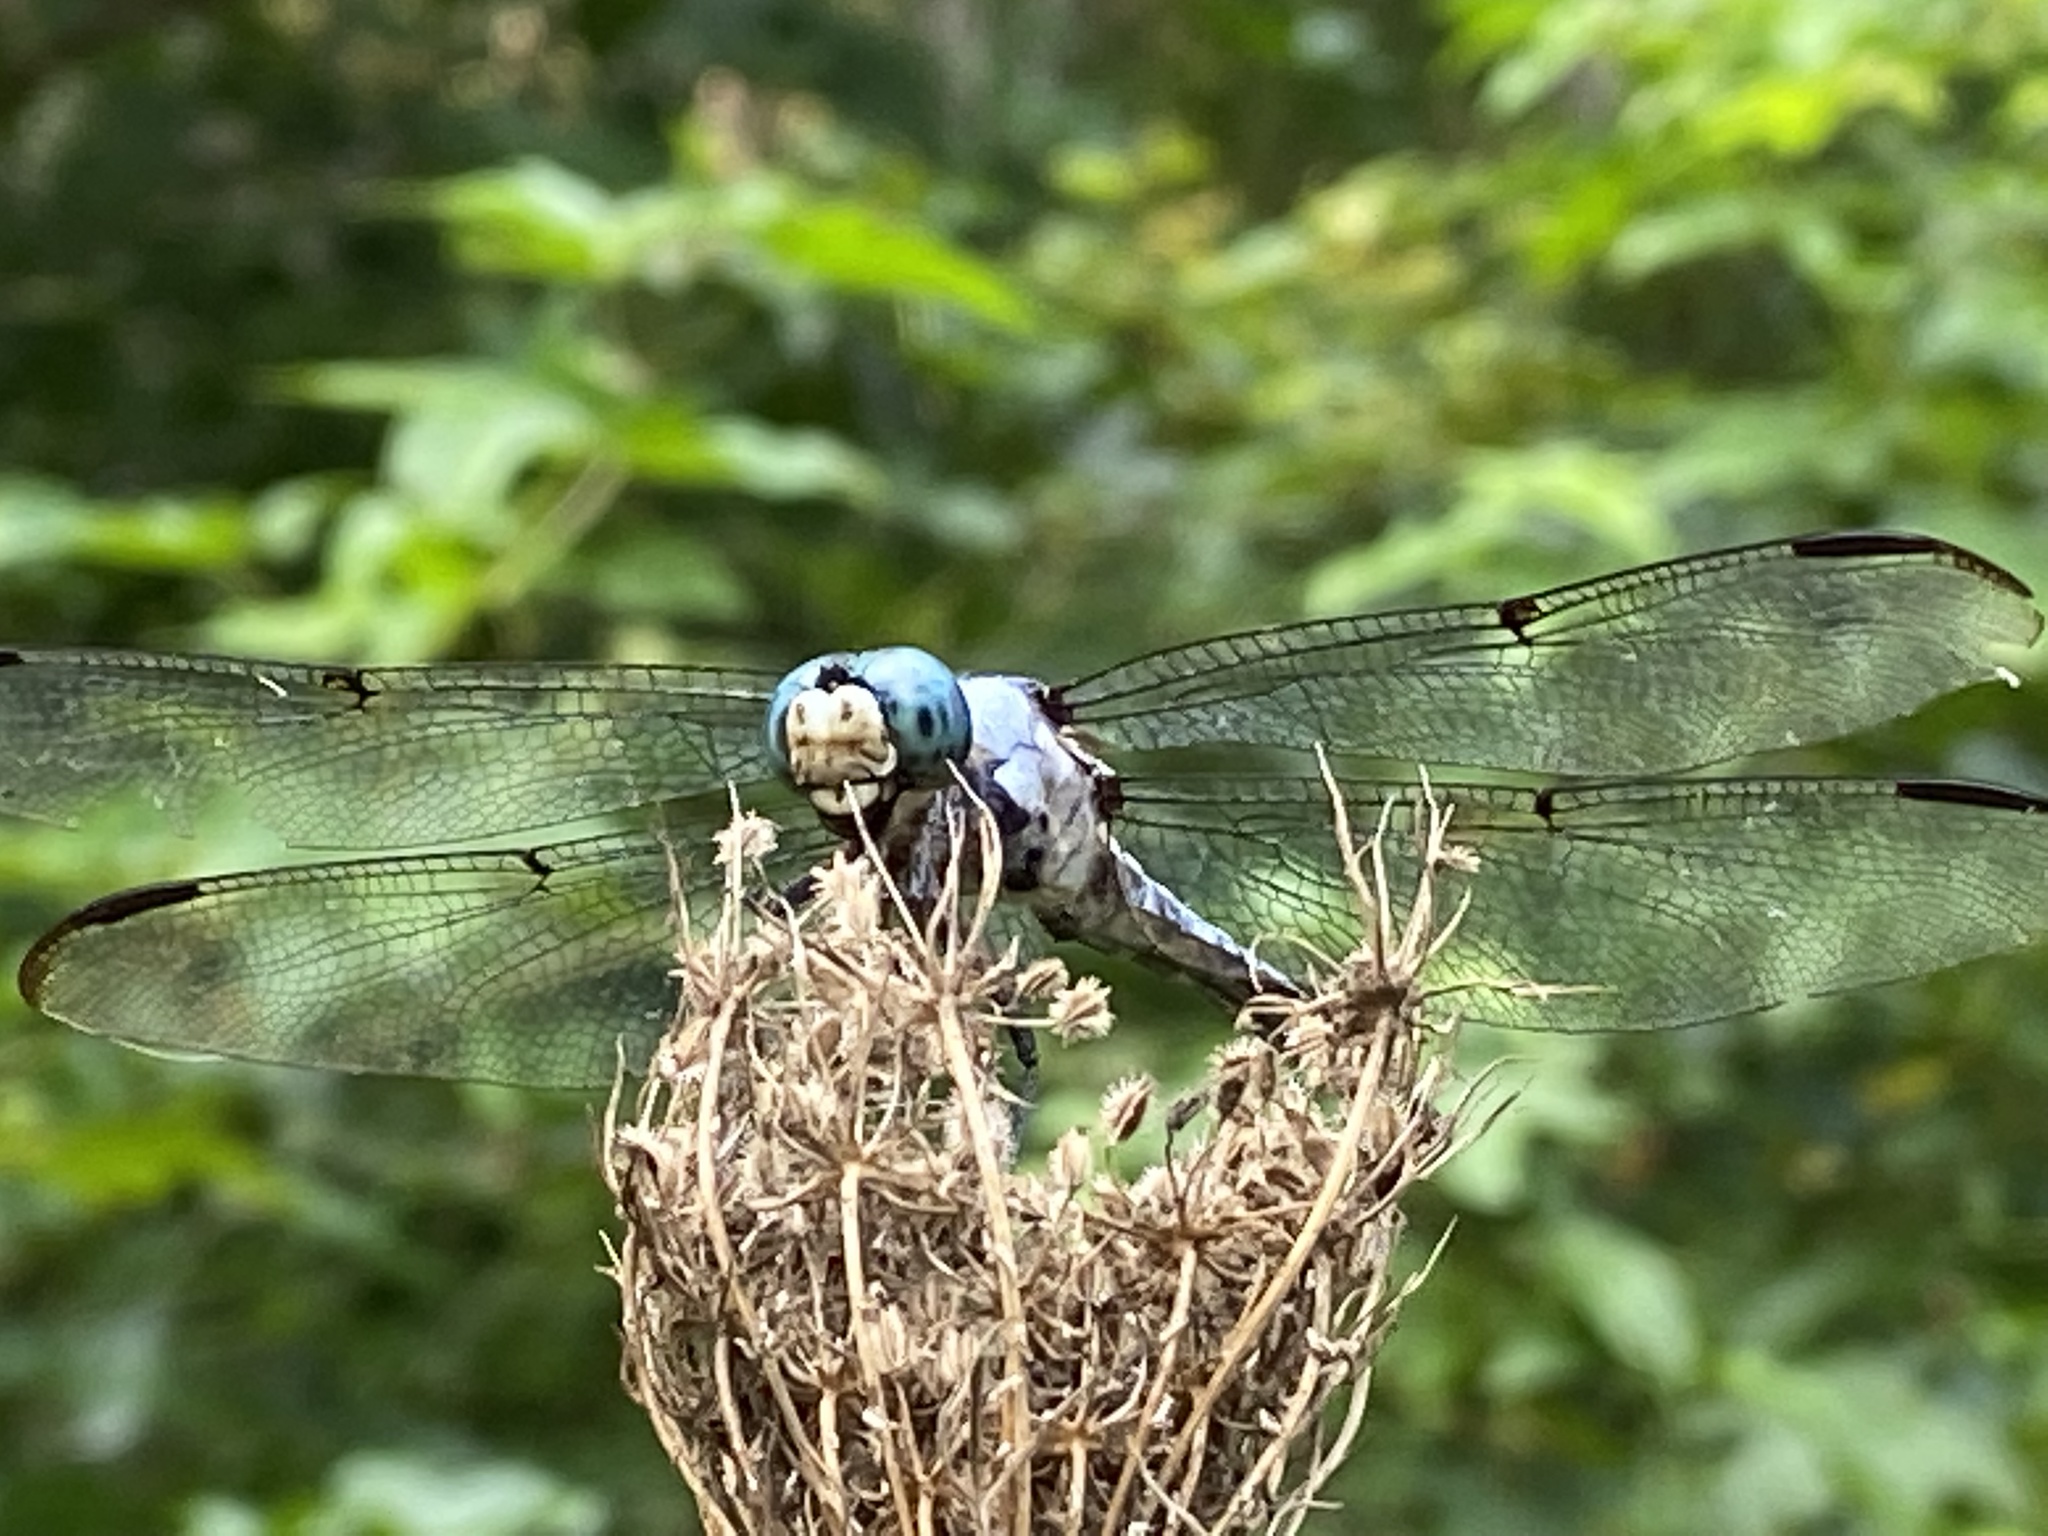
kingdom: Animalia
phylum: Arthropoda
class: Insecta
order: Odonata
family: Libellulidae
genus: Libellula
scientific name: Libellula vibrans
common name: Great blue skimmer
